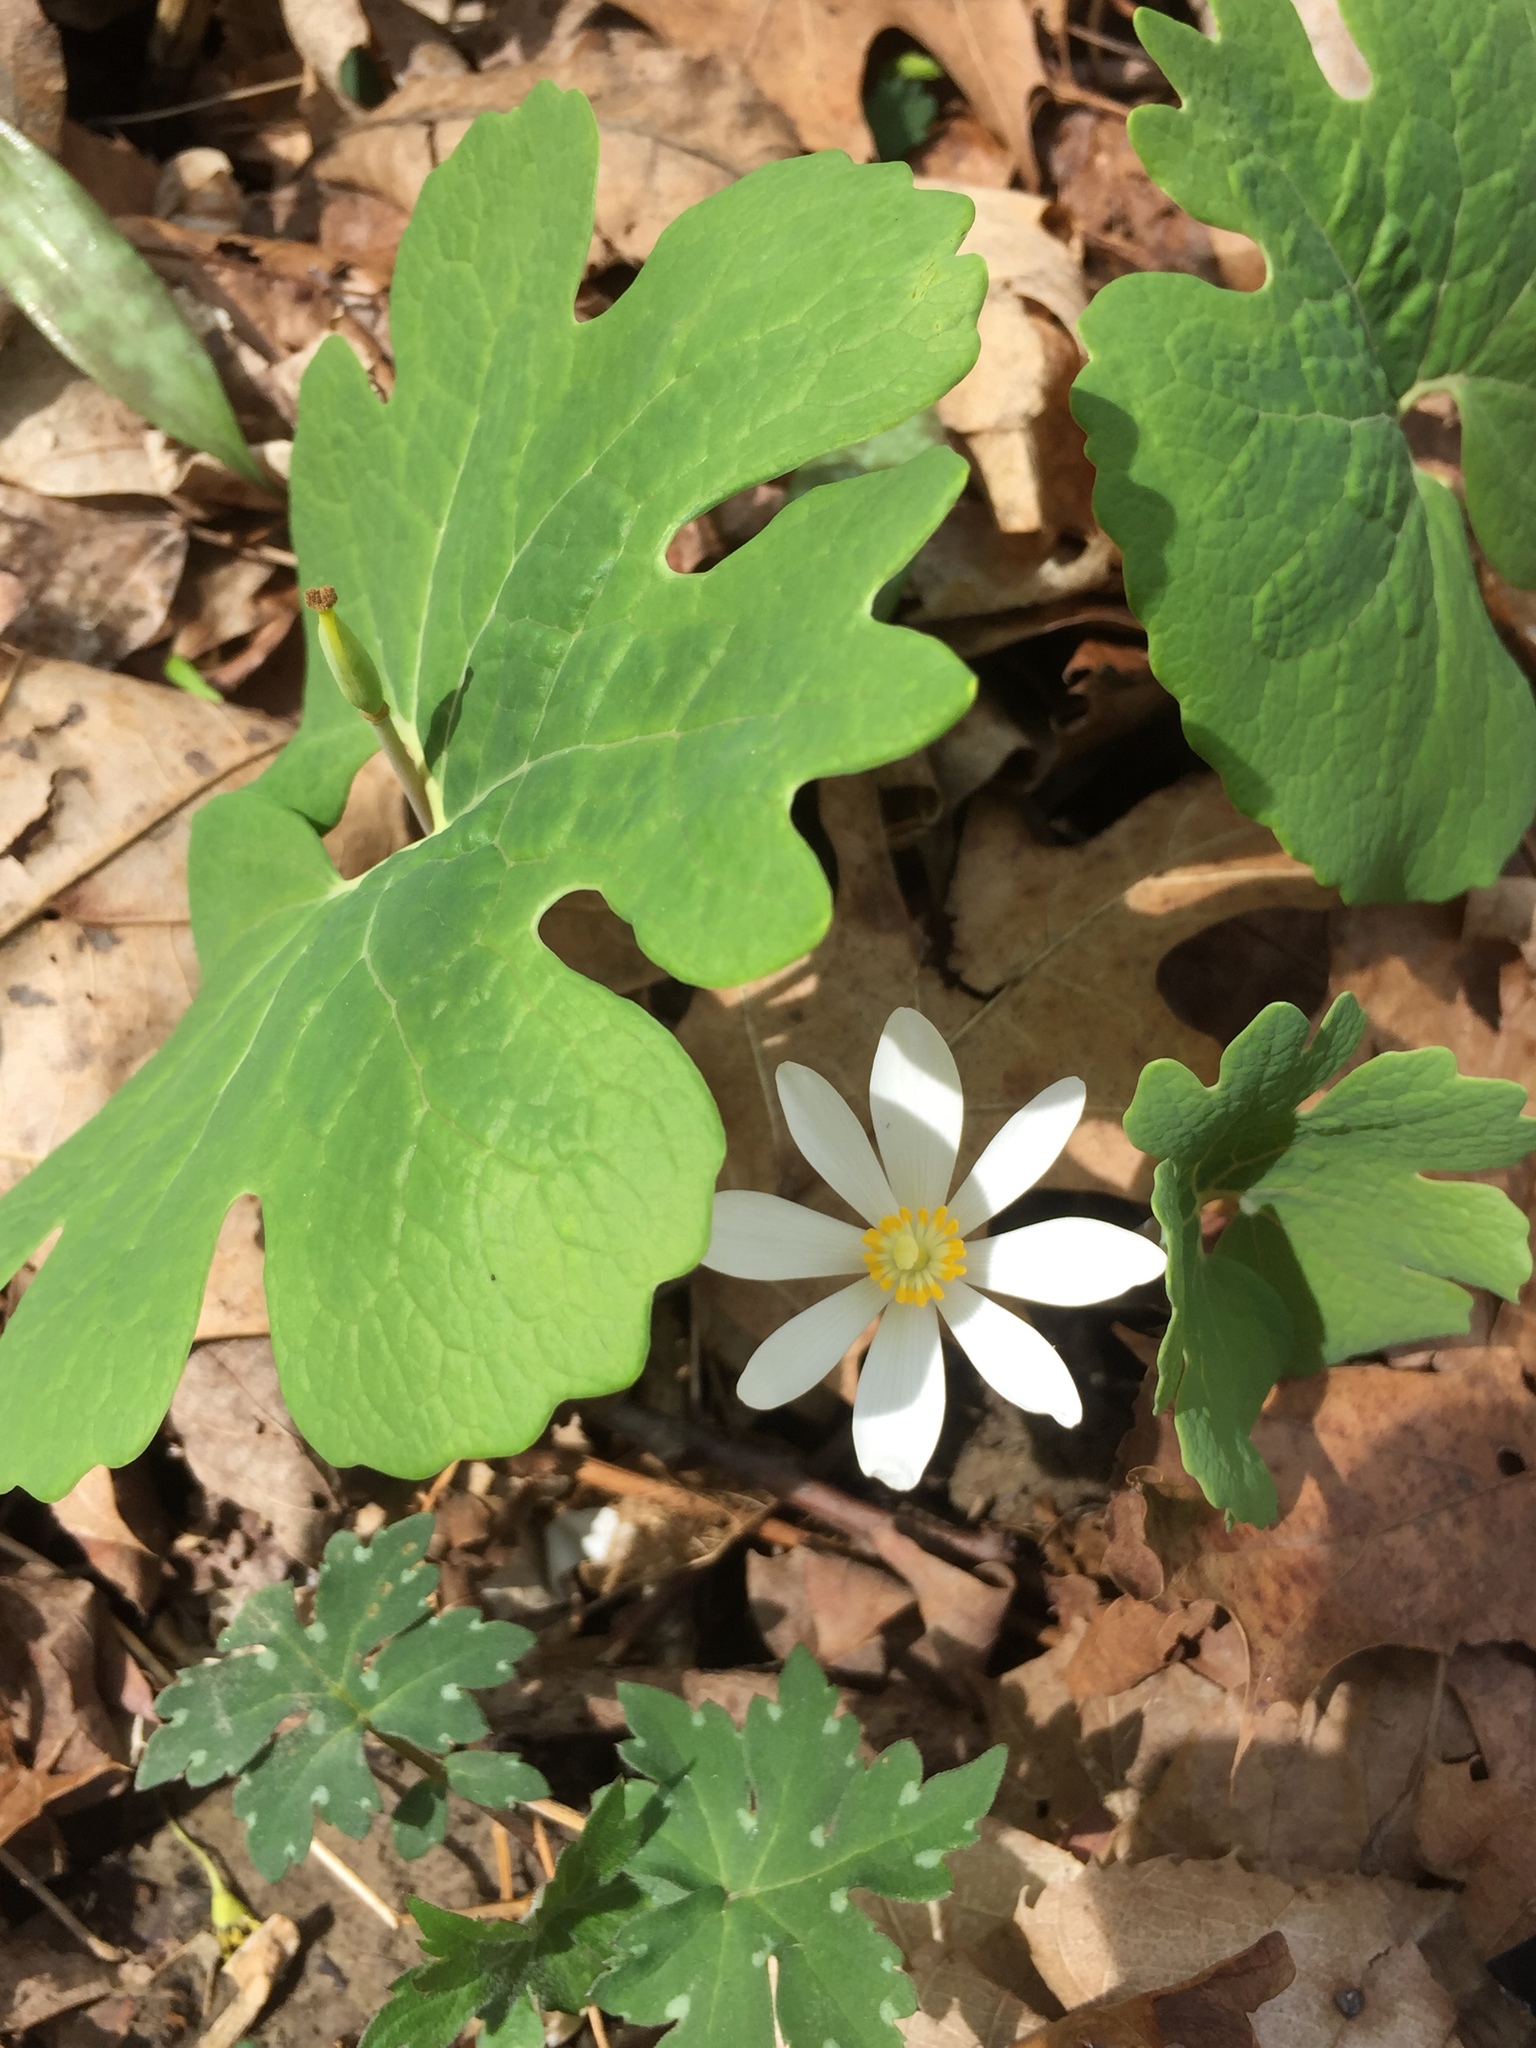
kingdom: Plantae
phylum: Tracheophyta
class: Magnoliopsida
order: Ranunculales
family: Papaveraceae
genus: Sanguinaria
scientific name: Sanguinaria canadensis
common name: Bloodroot
